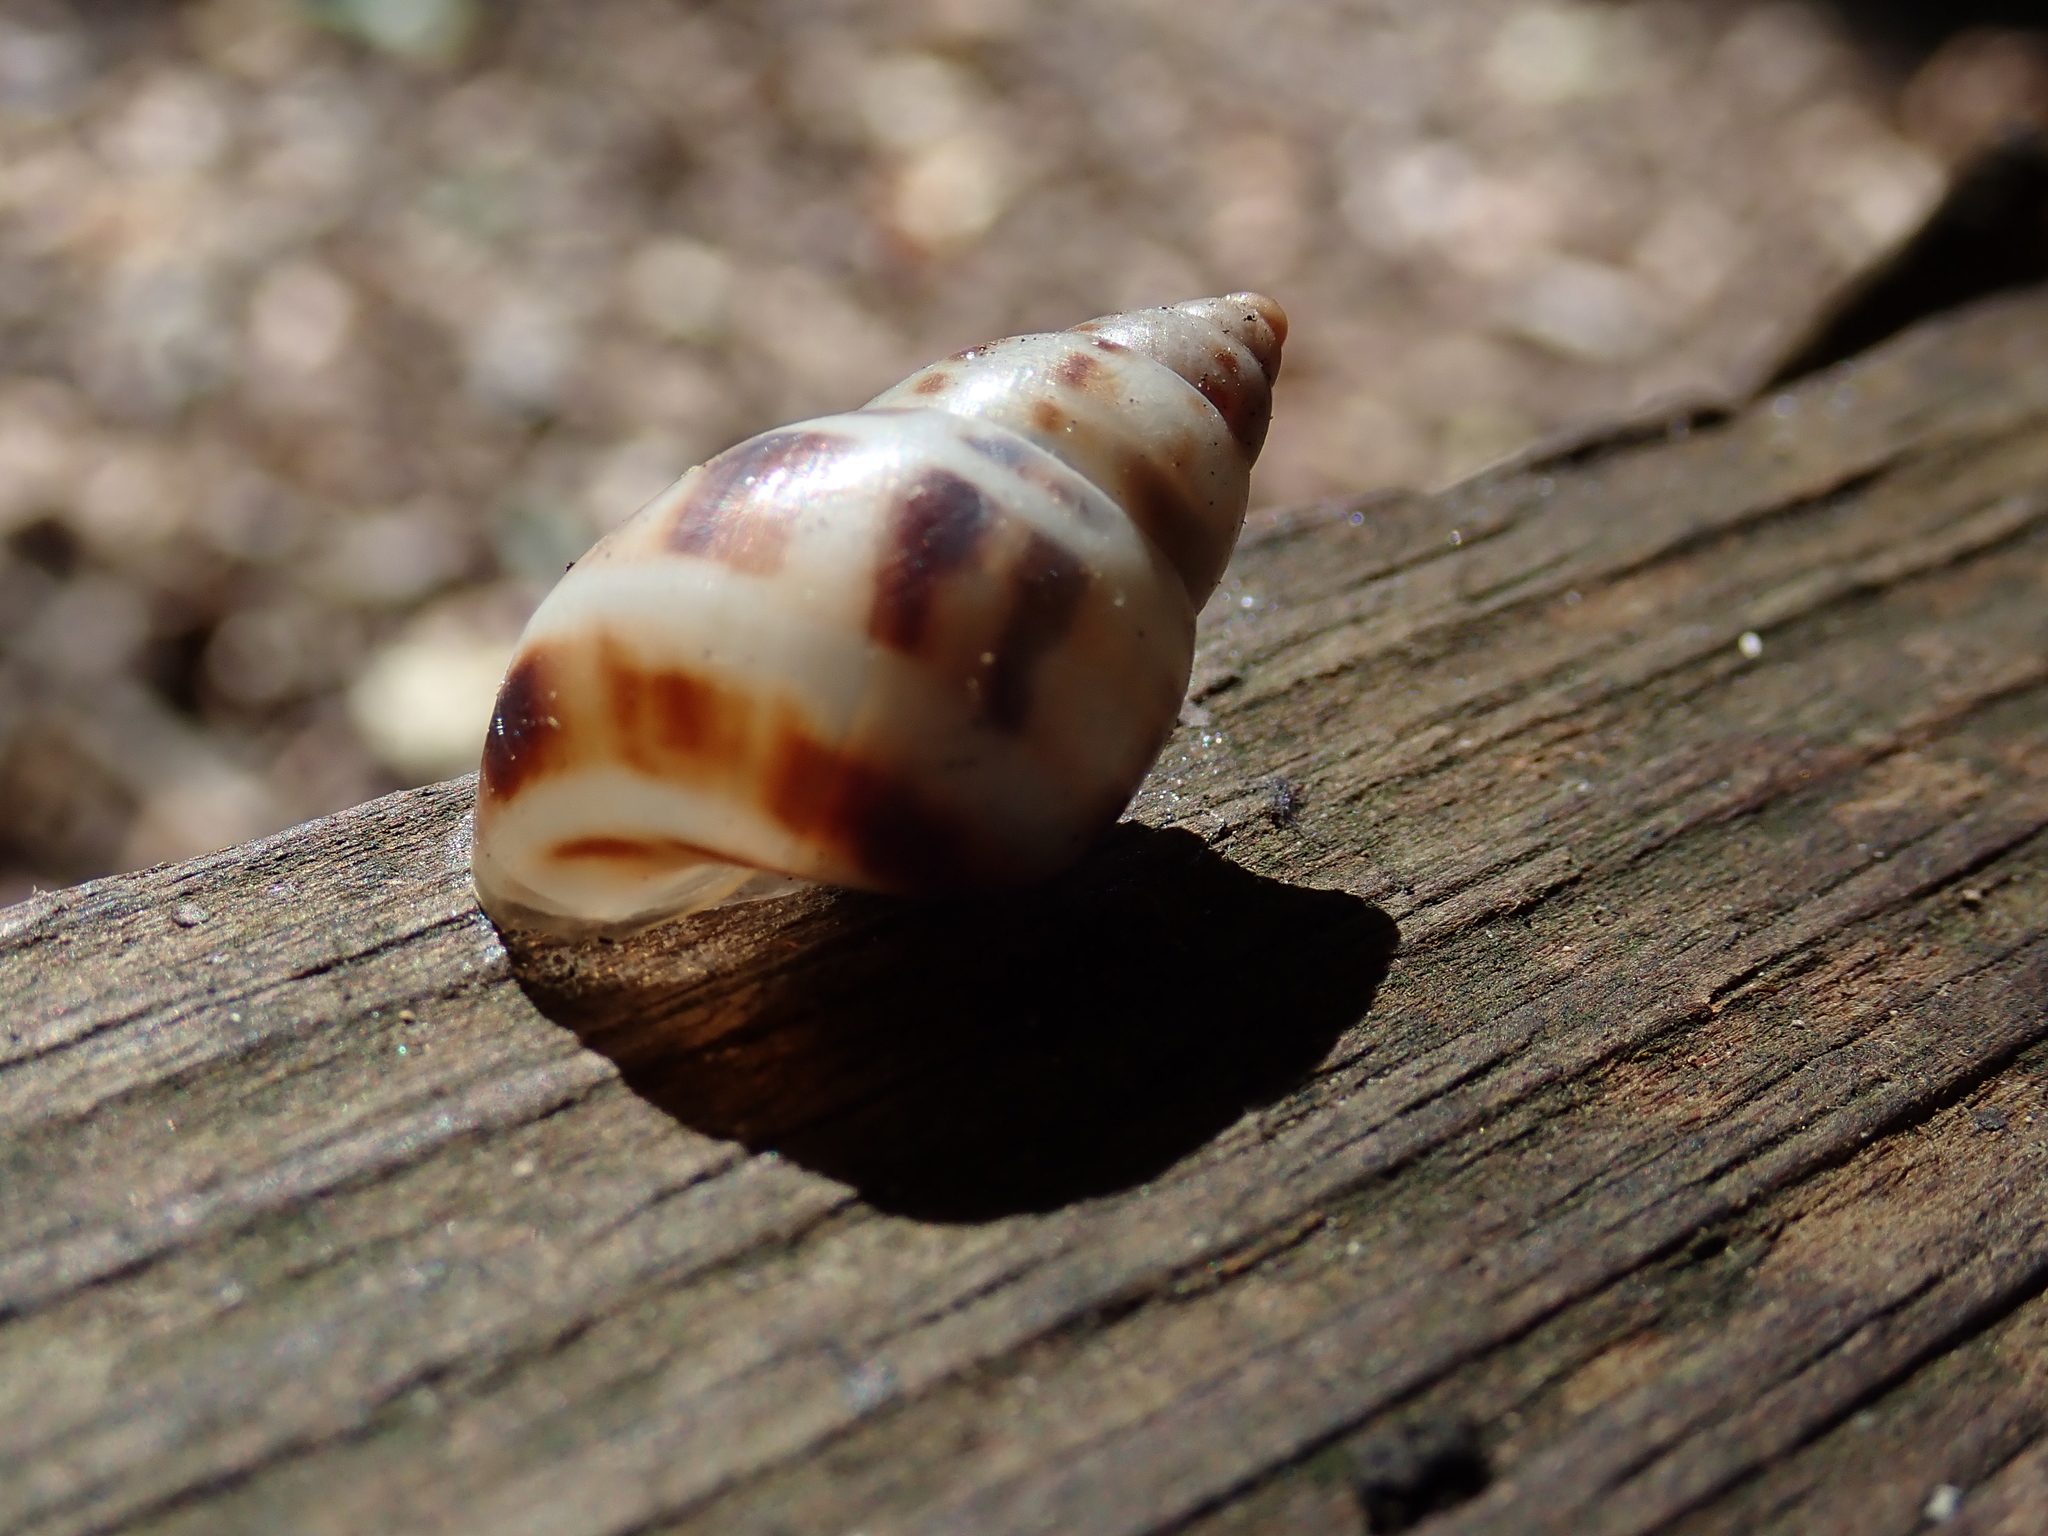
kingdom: Animalia
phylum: Mollusca
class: Gastropoda
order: Stylommatophora
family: Bulimulidae
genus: Drymaeus
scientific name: Drymaeus dormani
